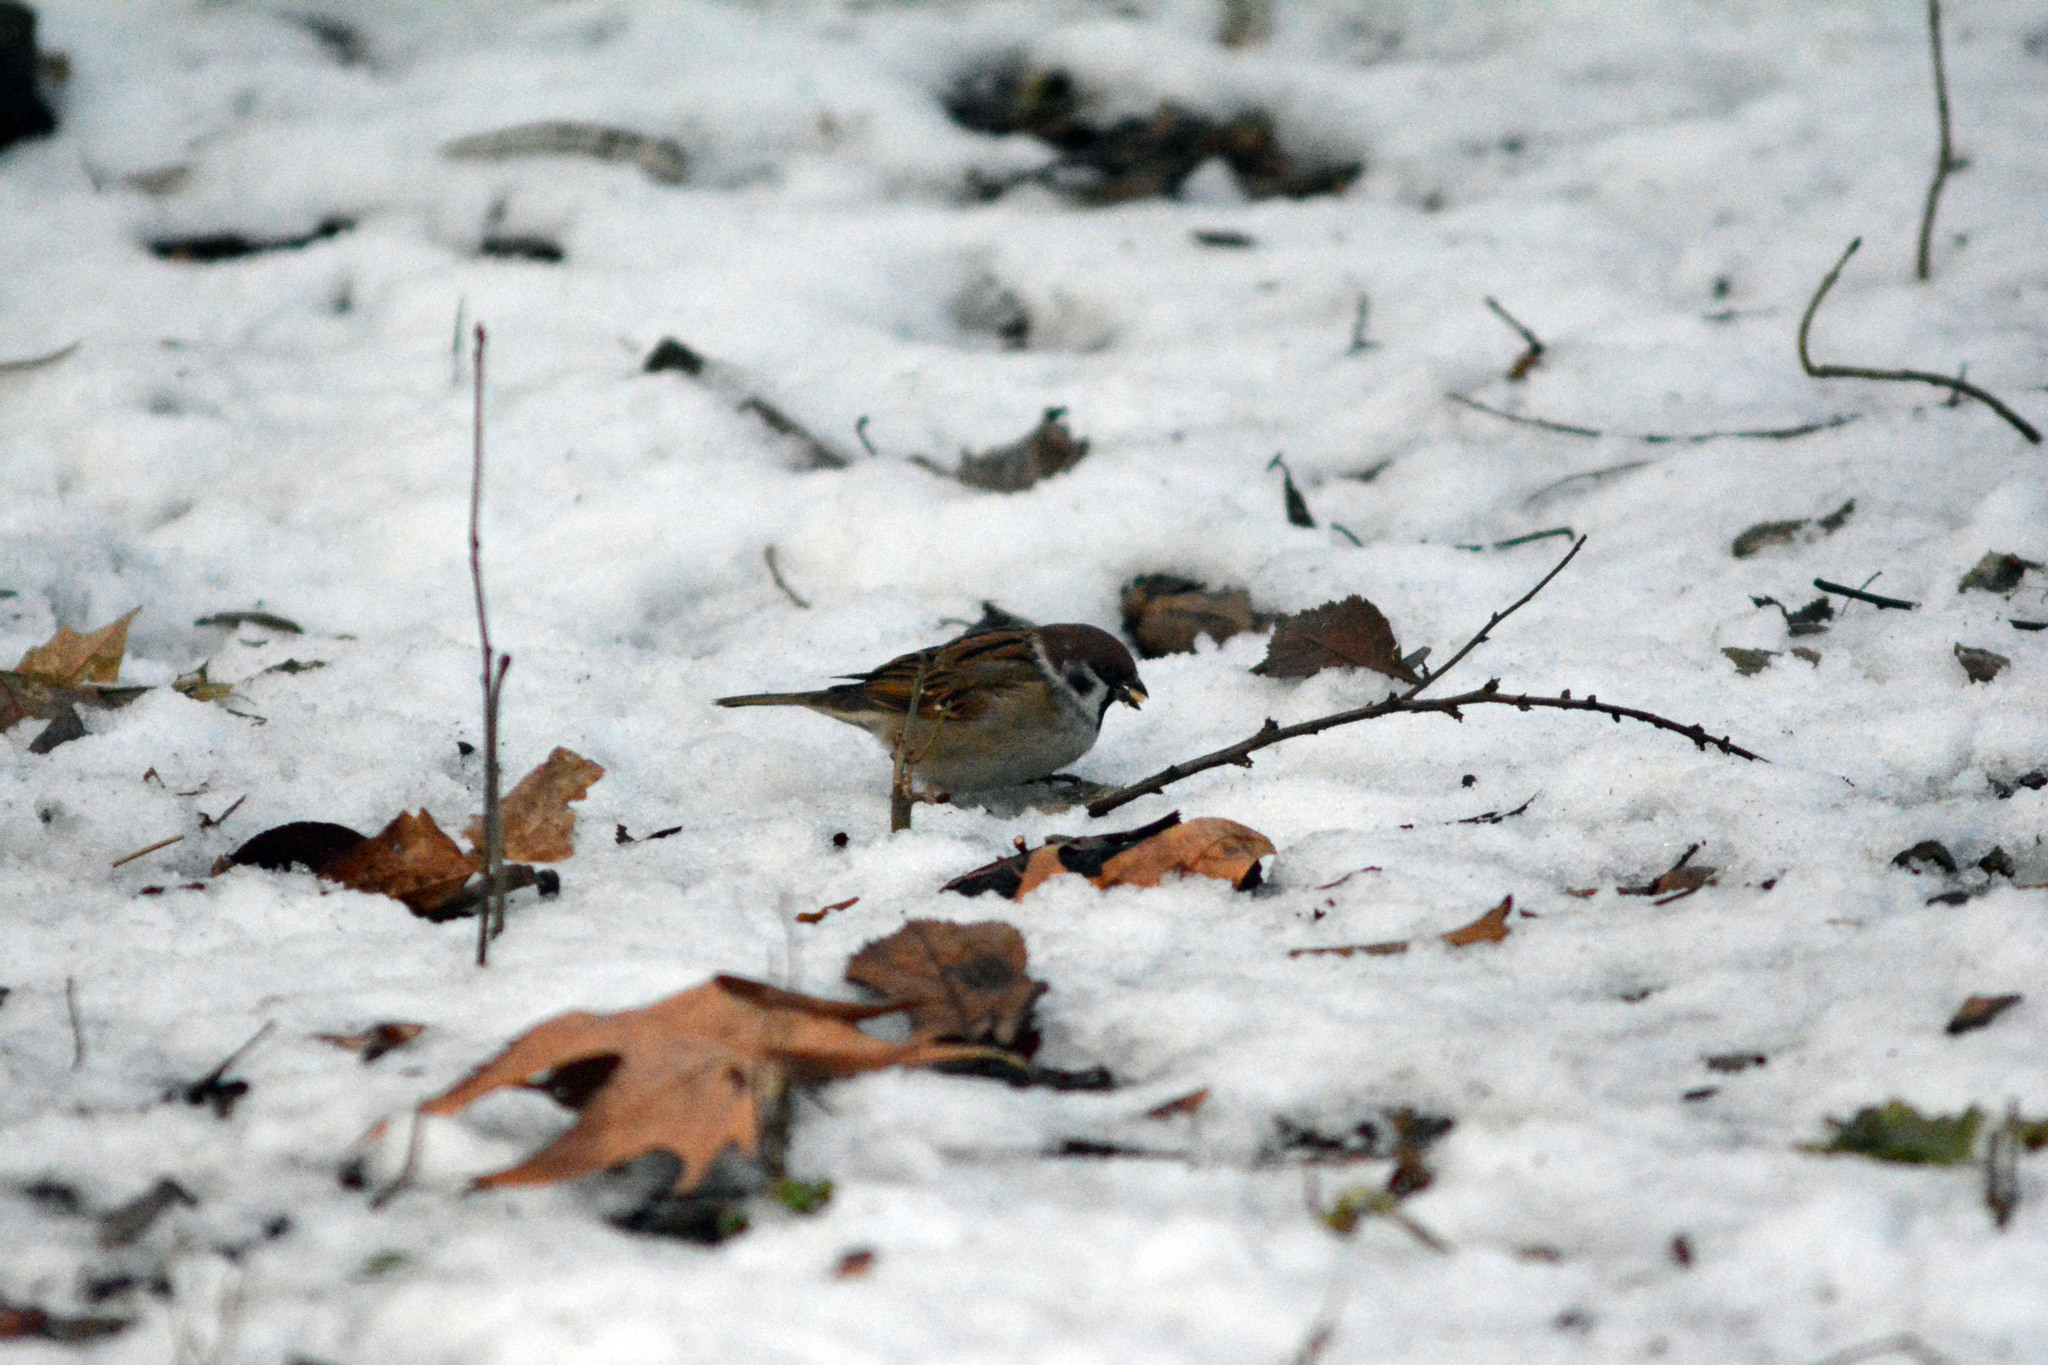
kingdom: Animalia
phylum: Chordata
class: Aves
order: Passeriformes
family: Passeridae
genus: Passer
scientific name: Passer montanus
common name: Eurasian tree sparrow
